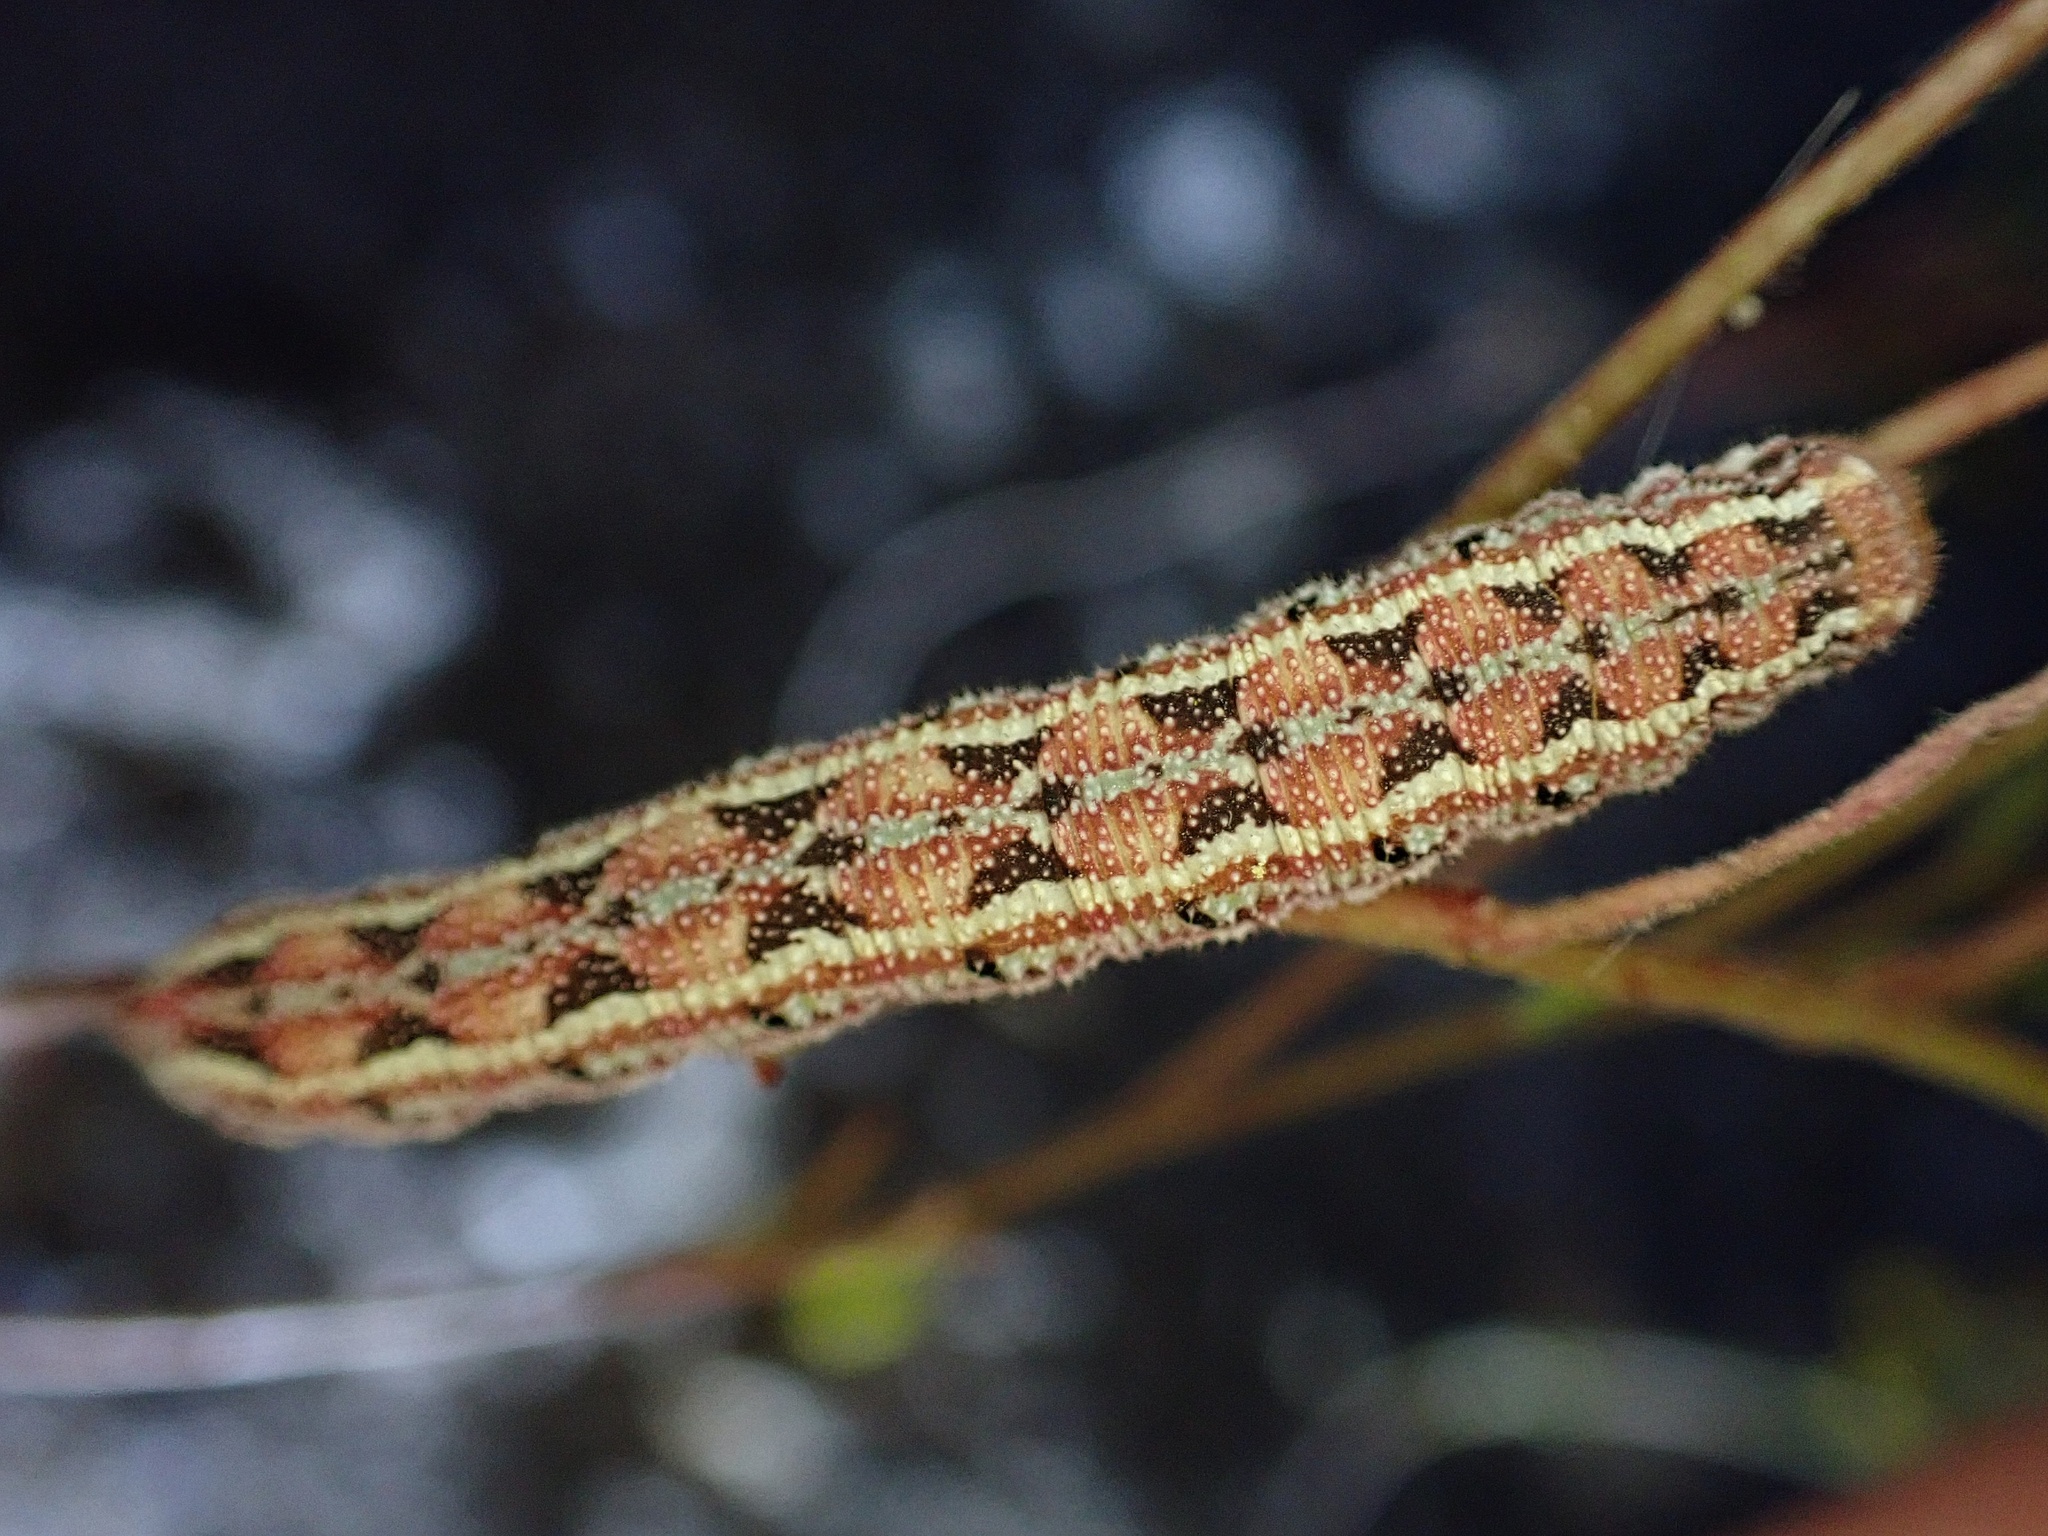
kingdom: Animalia
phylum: Arthropoda
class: Insecta
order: Lepidoptera
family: Sphingidae
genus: Euproserpinus
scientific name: Euproserpinus euterpe
